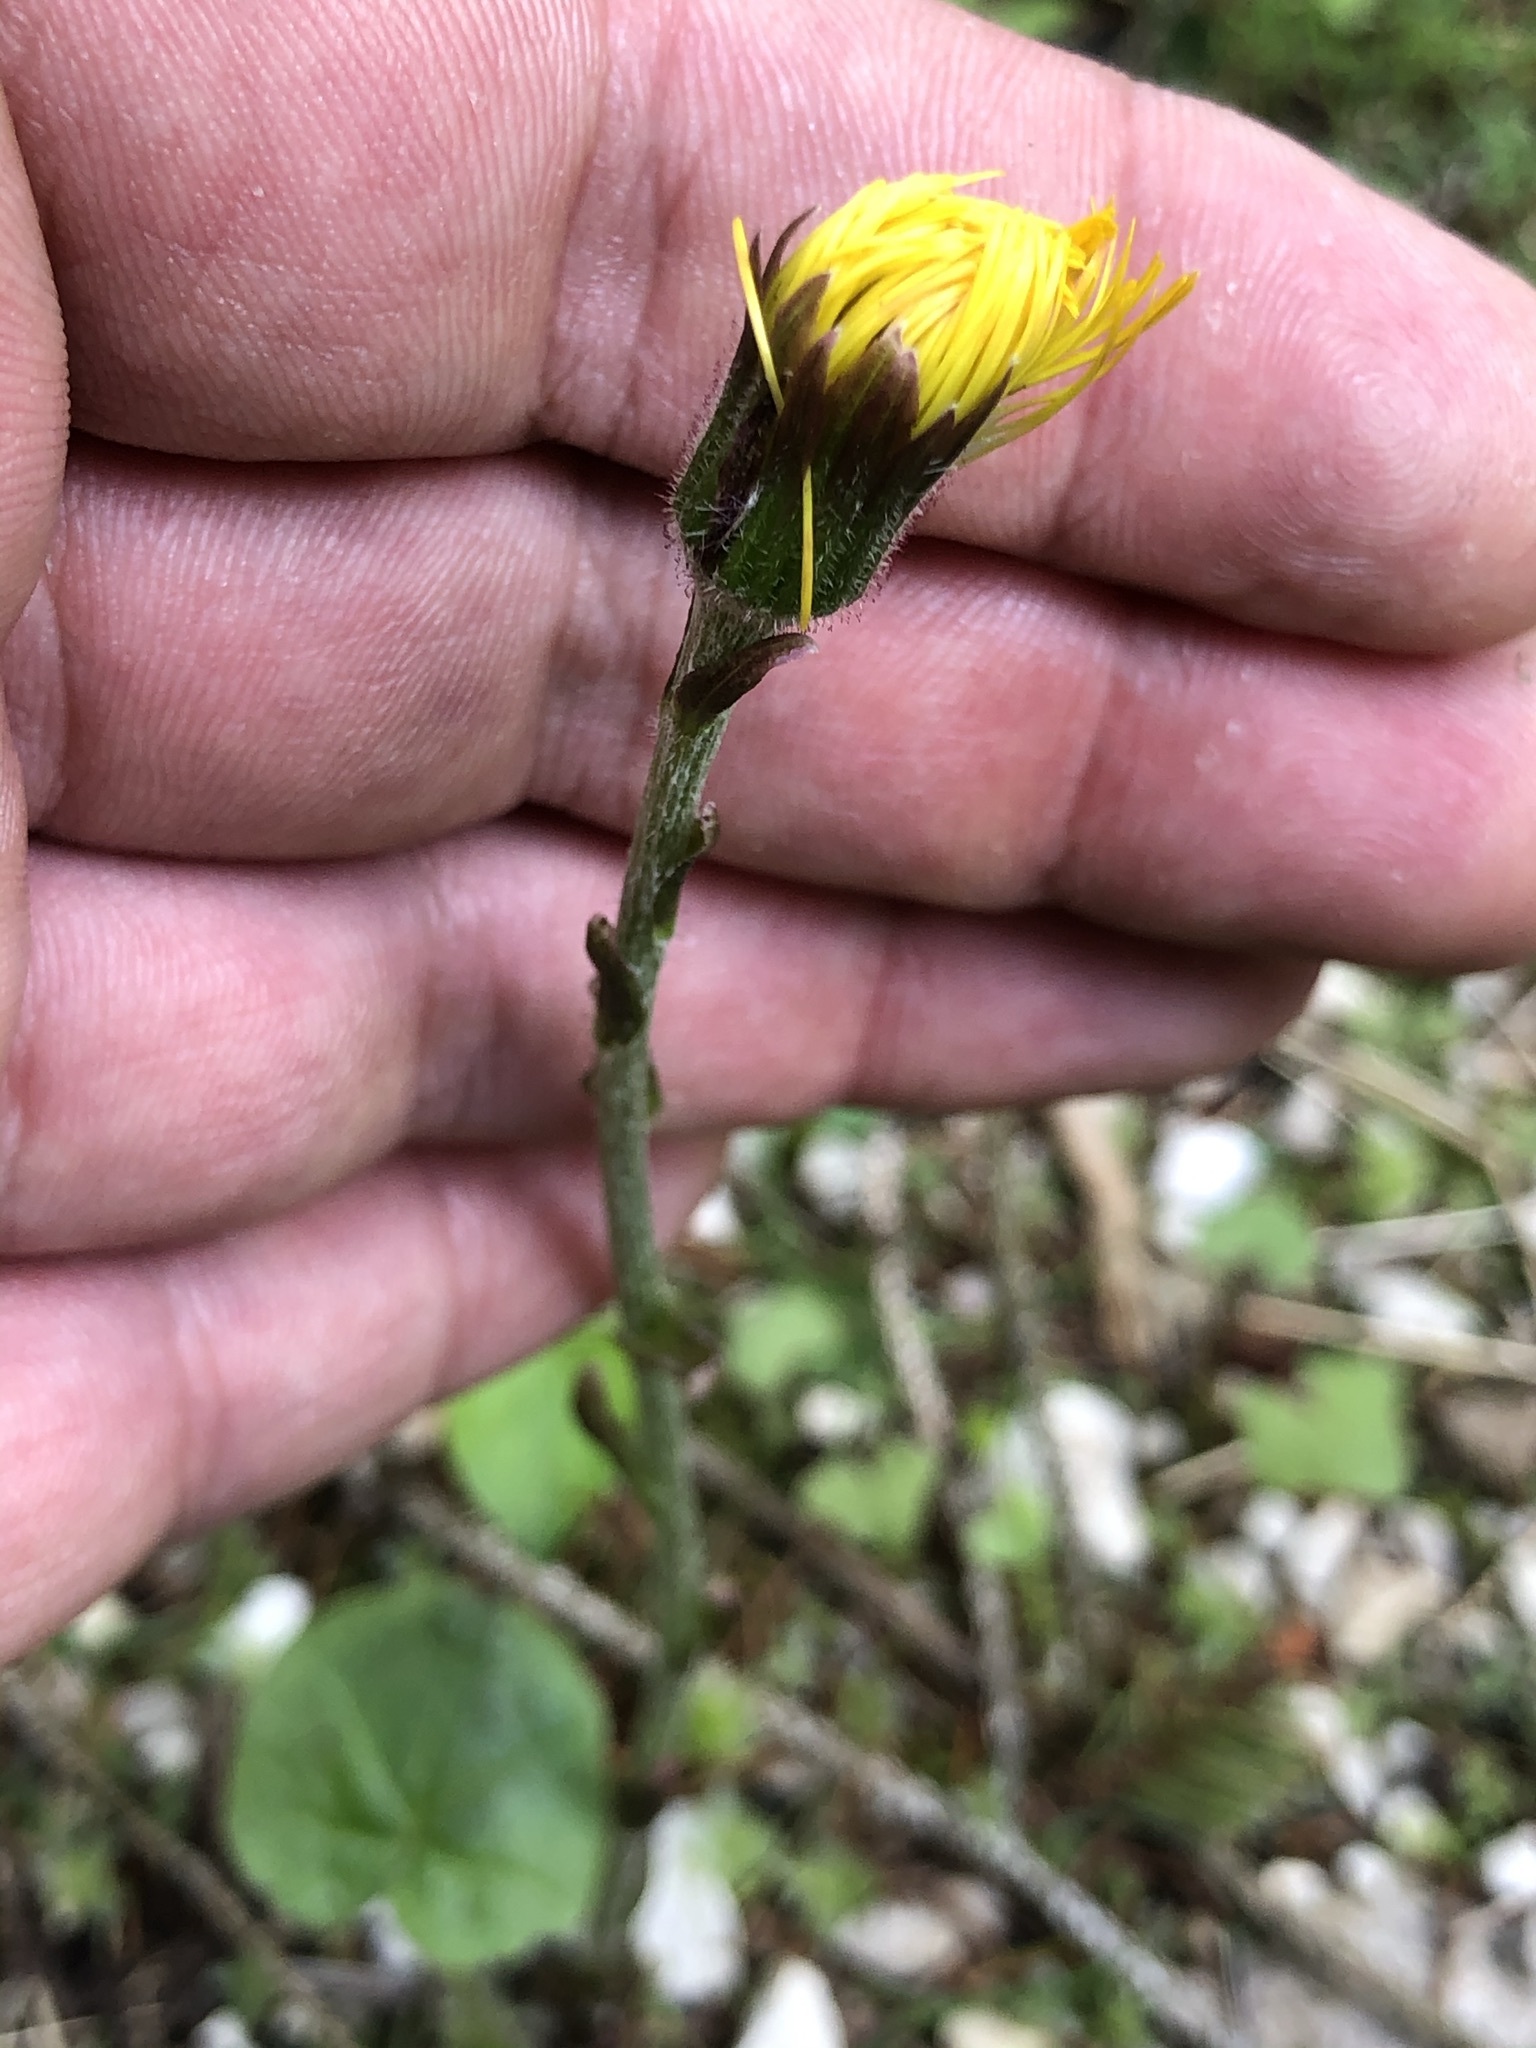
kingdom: Plantae
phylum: Tracheophyta
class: Magnoliopsida
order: Asterales
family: Asteraceae
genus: Tussilago
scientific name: Tussilago farfara
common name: Coltsfoot
